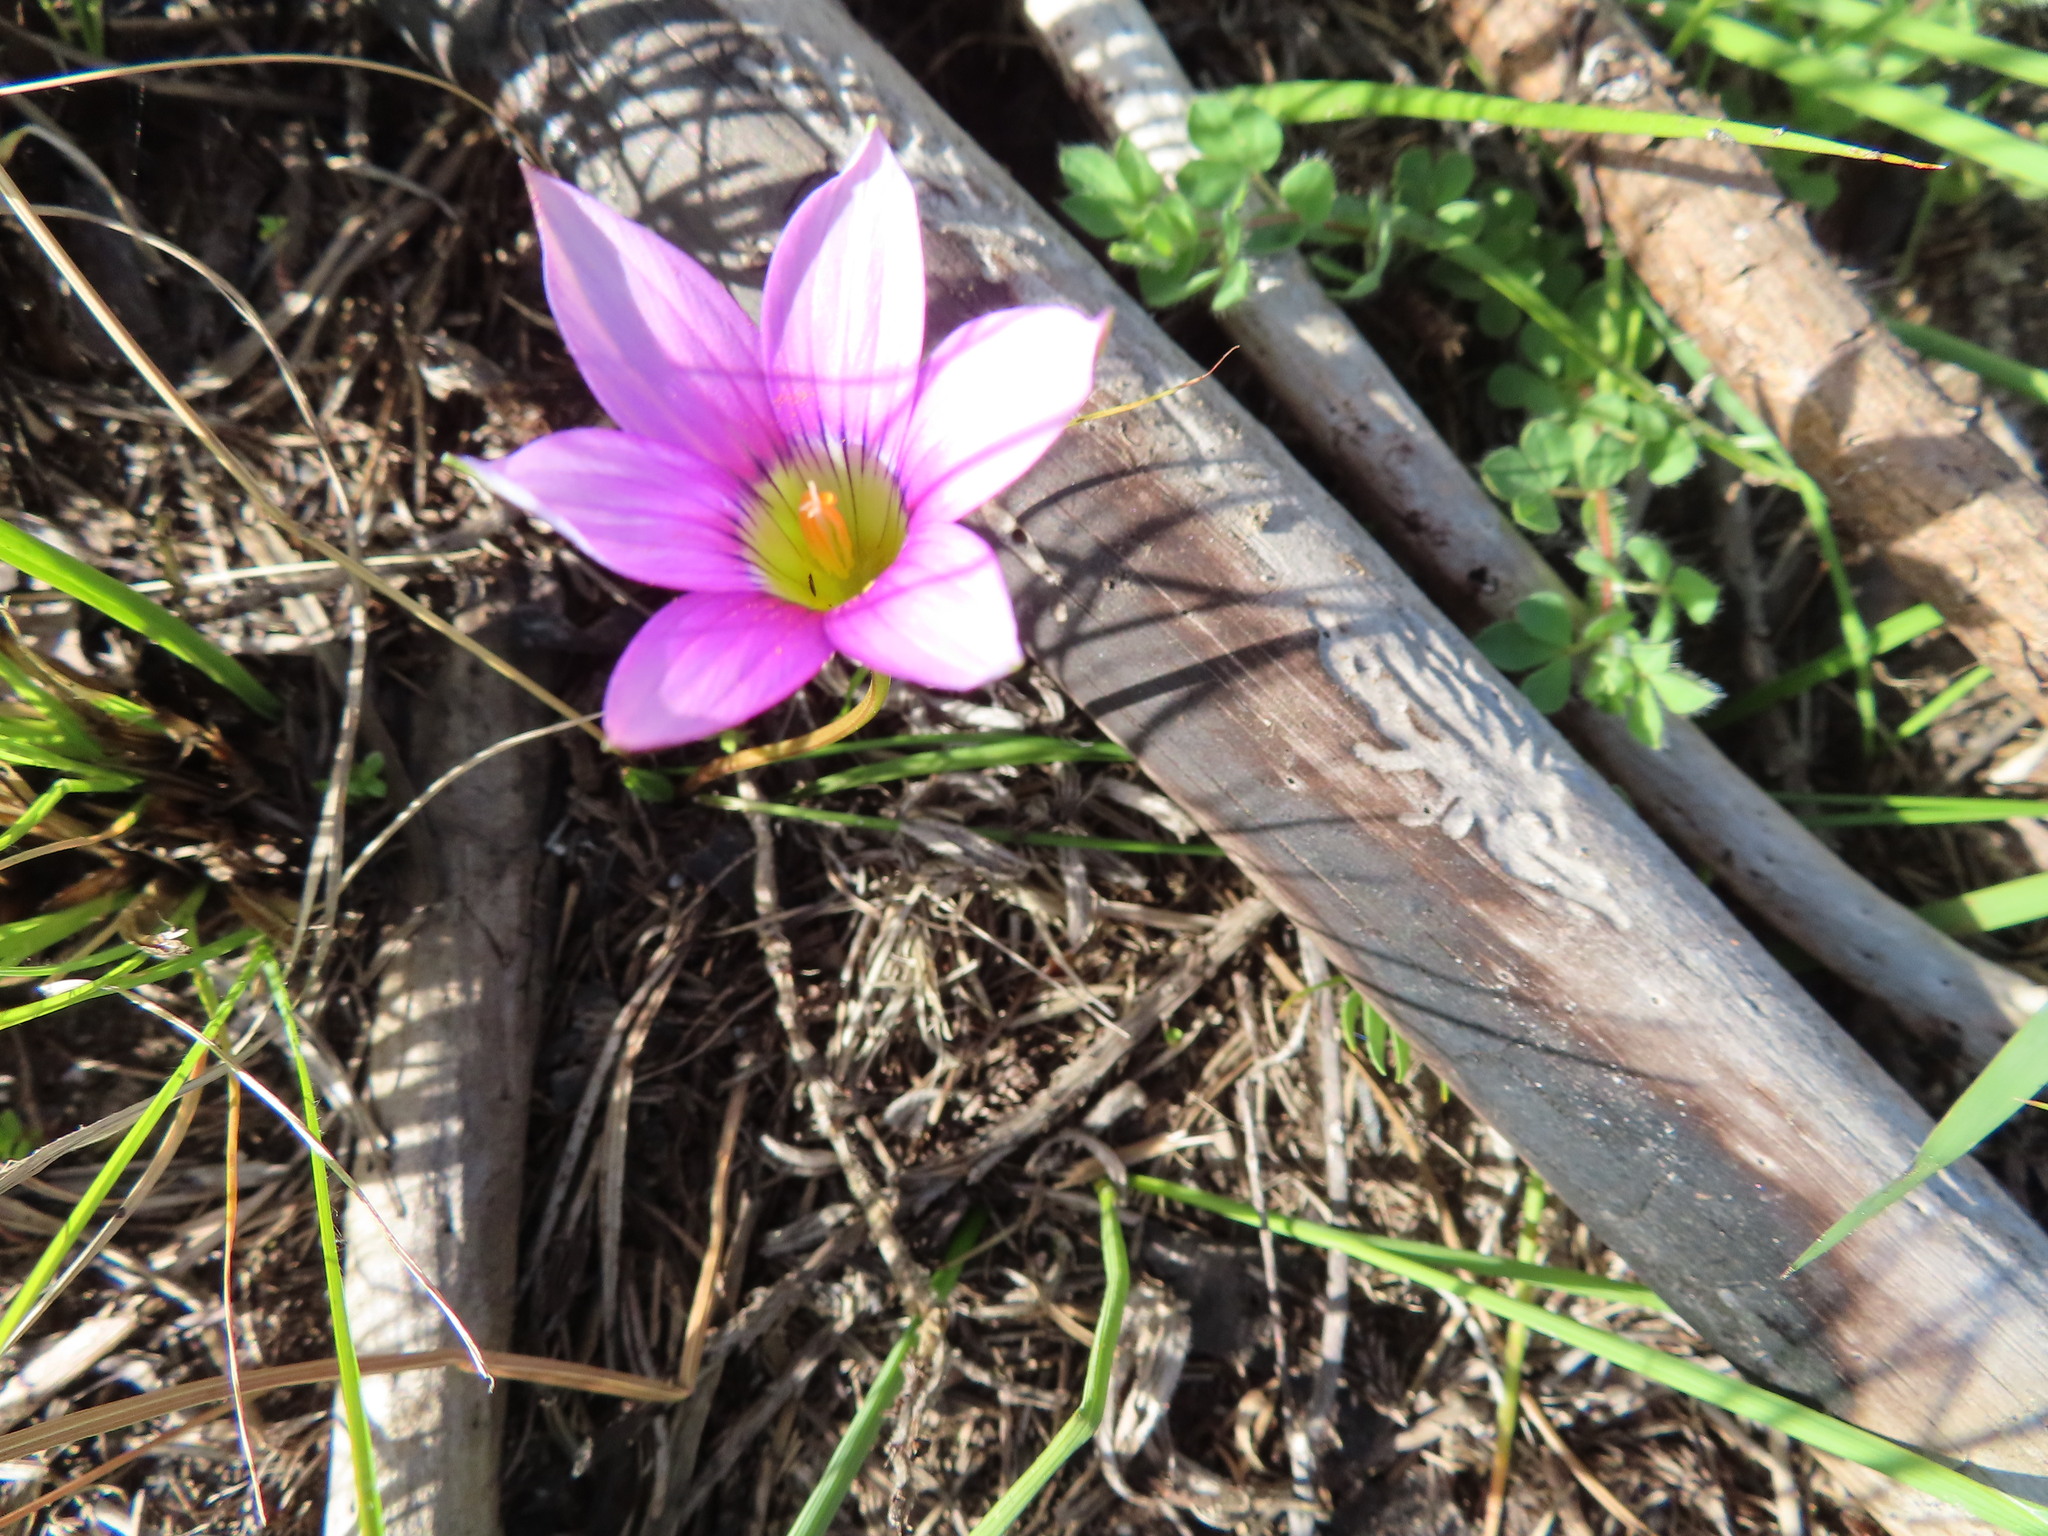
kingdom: Plantae
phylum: Tracheophyta
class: Liliopsida
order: Asparagales
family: Iridaceae
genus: Romulea
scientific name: Romulea rosea
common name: Oniongrass
